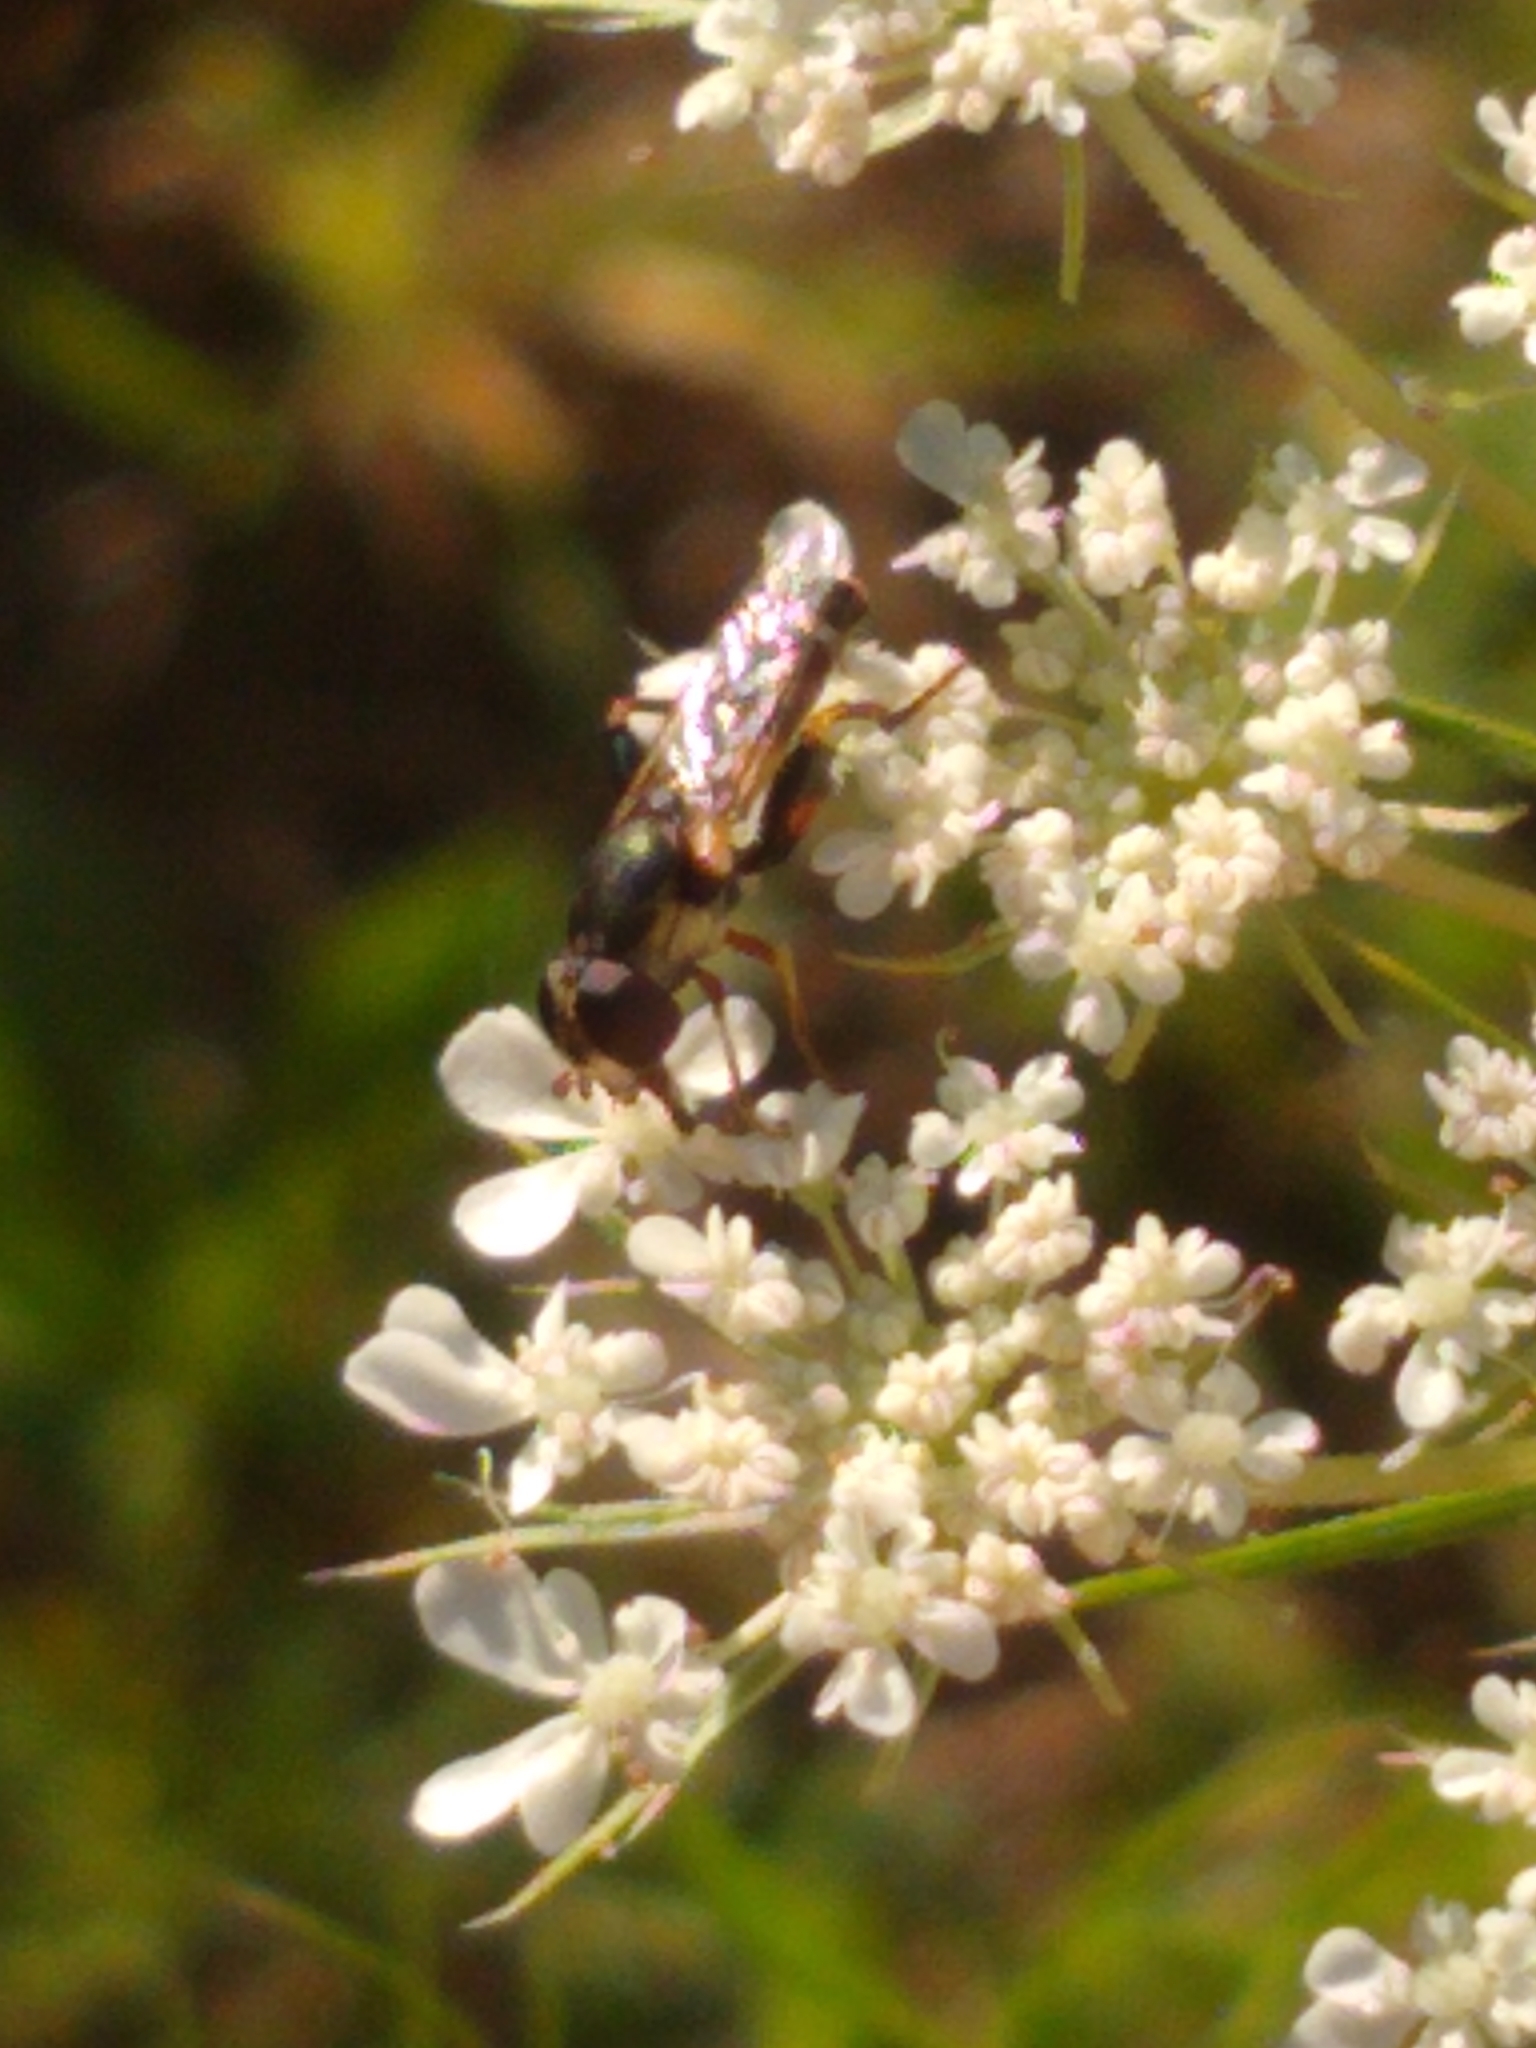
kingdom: Animalia
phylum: Arthropoda
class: Insecta
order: Diptera
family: Syrphidae
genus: Syritta
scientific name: Syritta pipiens
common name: Hover fly
